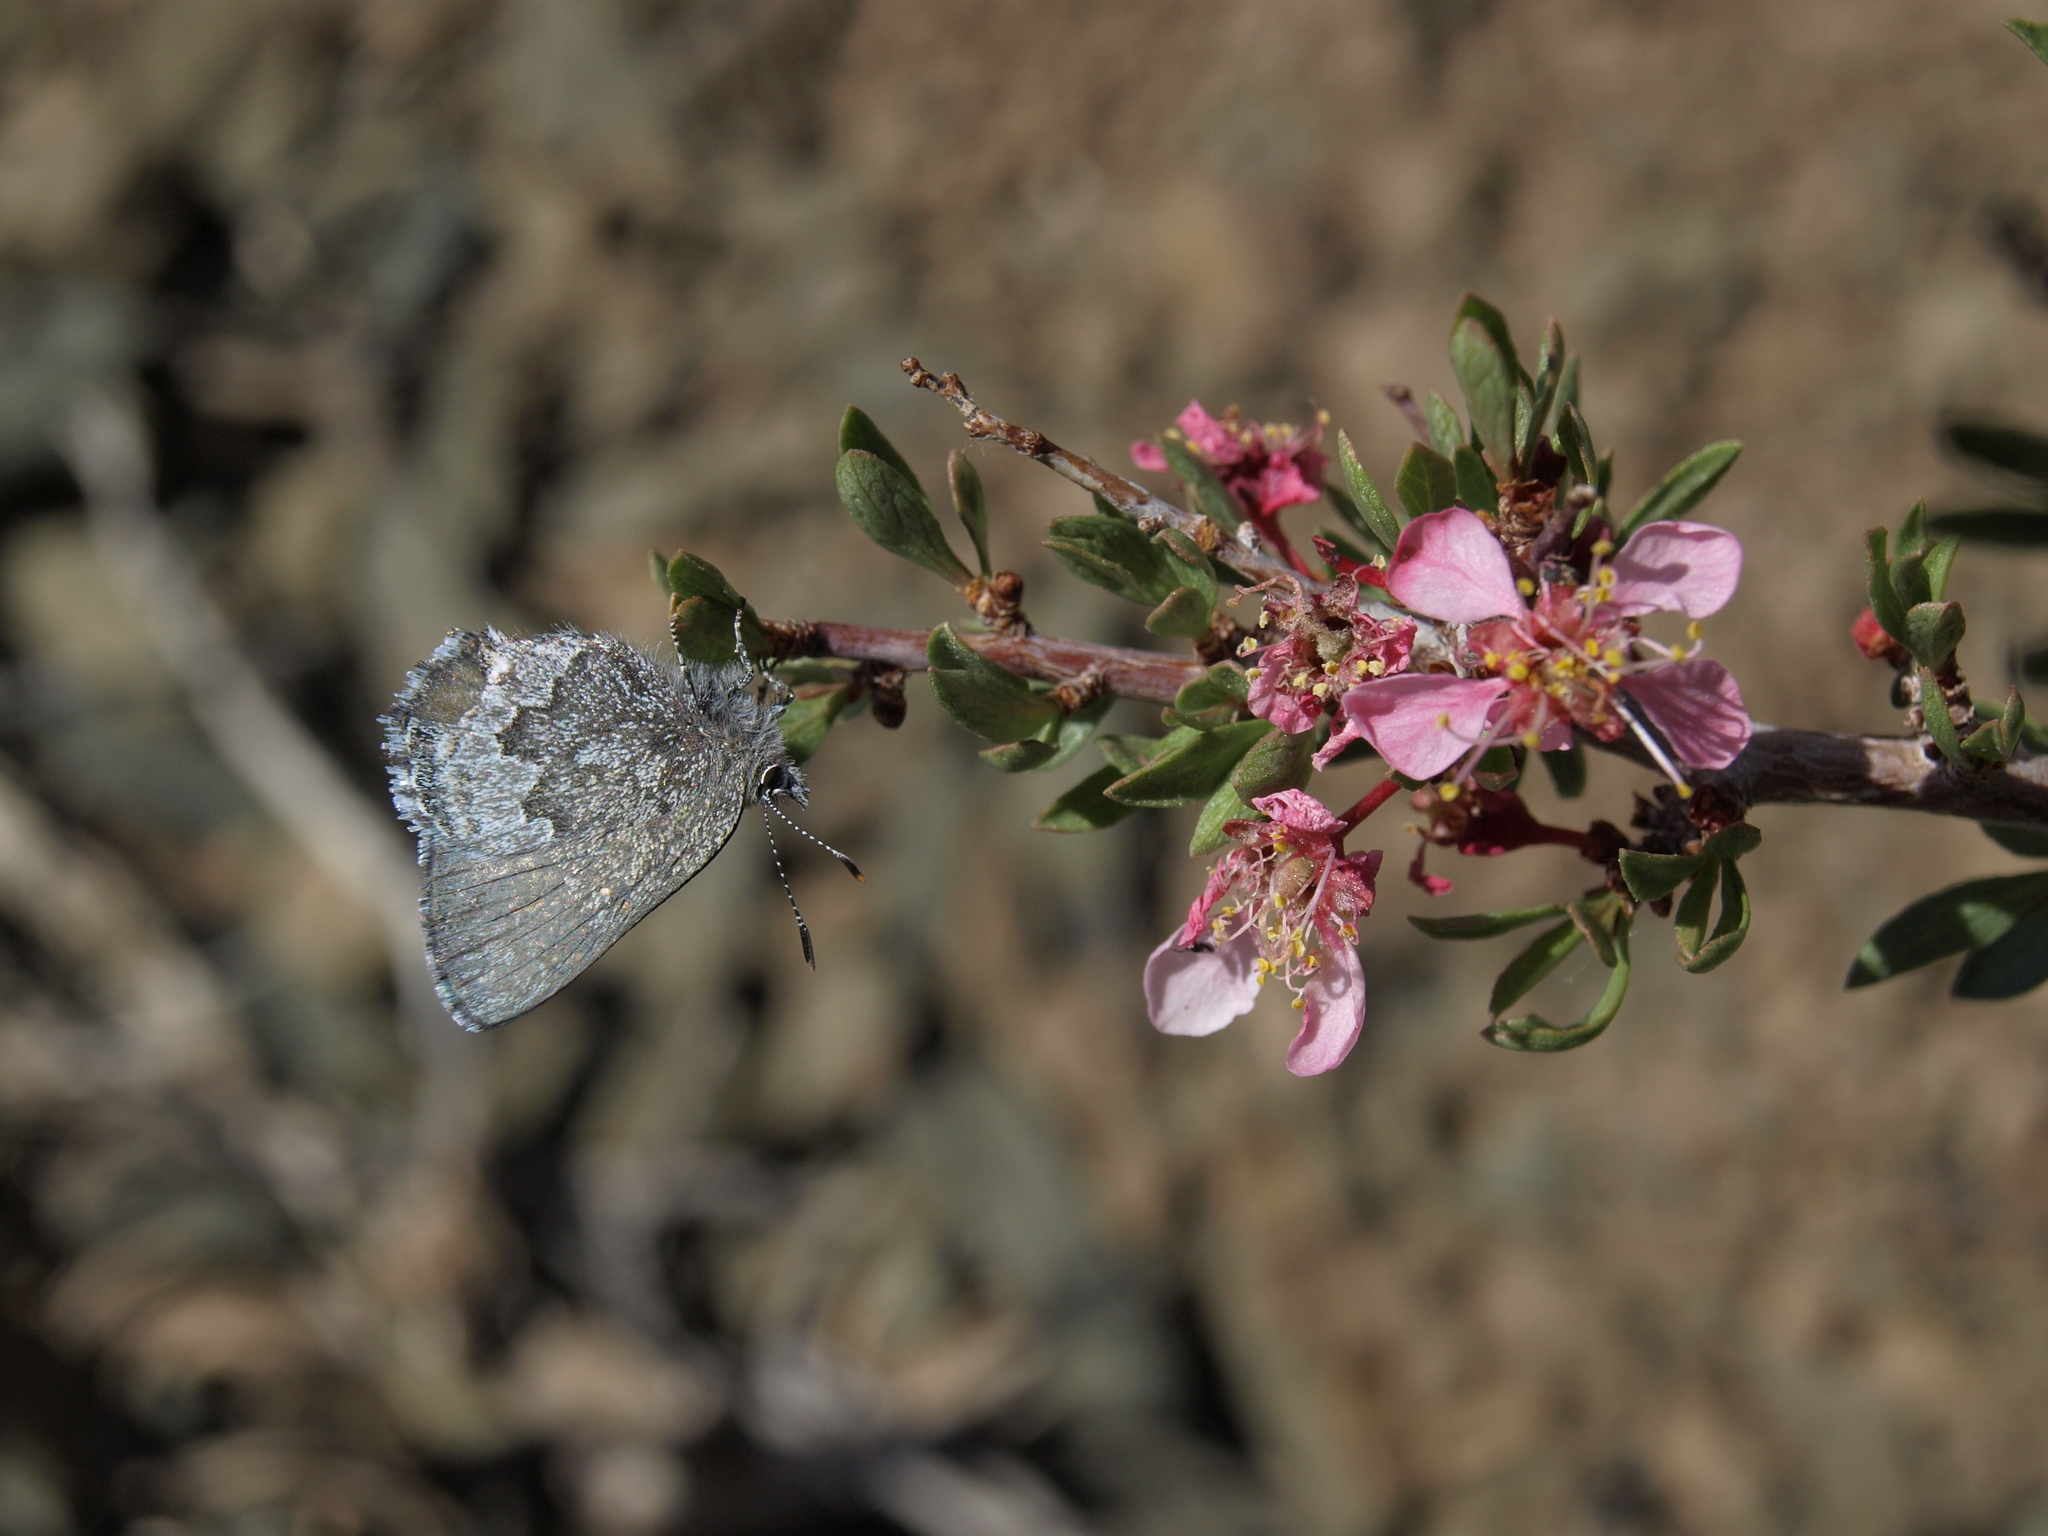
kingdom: Animalia
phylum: Arthropoda
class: Insecta
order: Lepidoptera
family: Lycaenidae
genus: Callophrys
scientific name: Callophrys fotis
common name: Desert elfin
